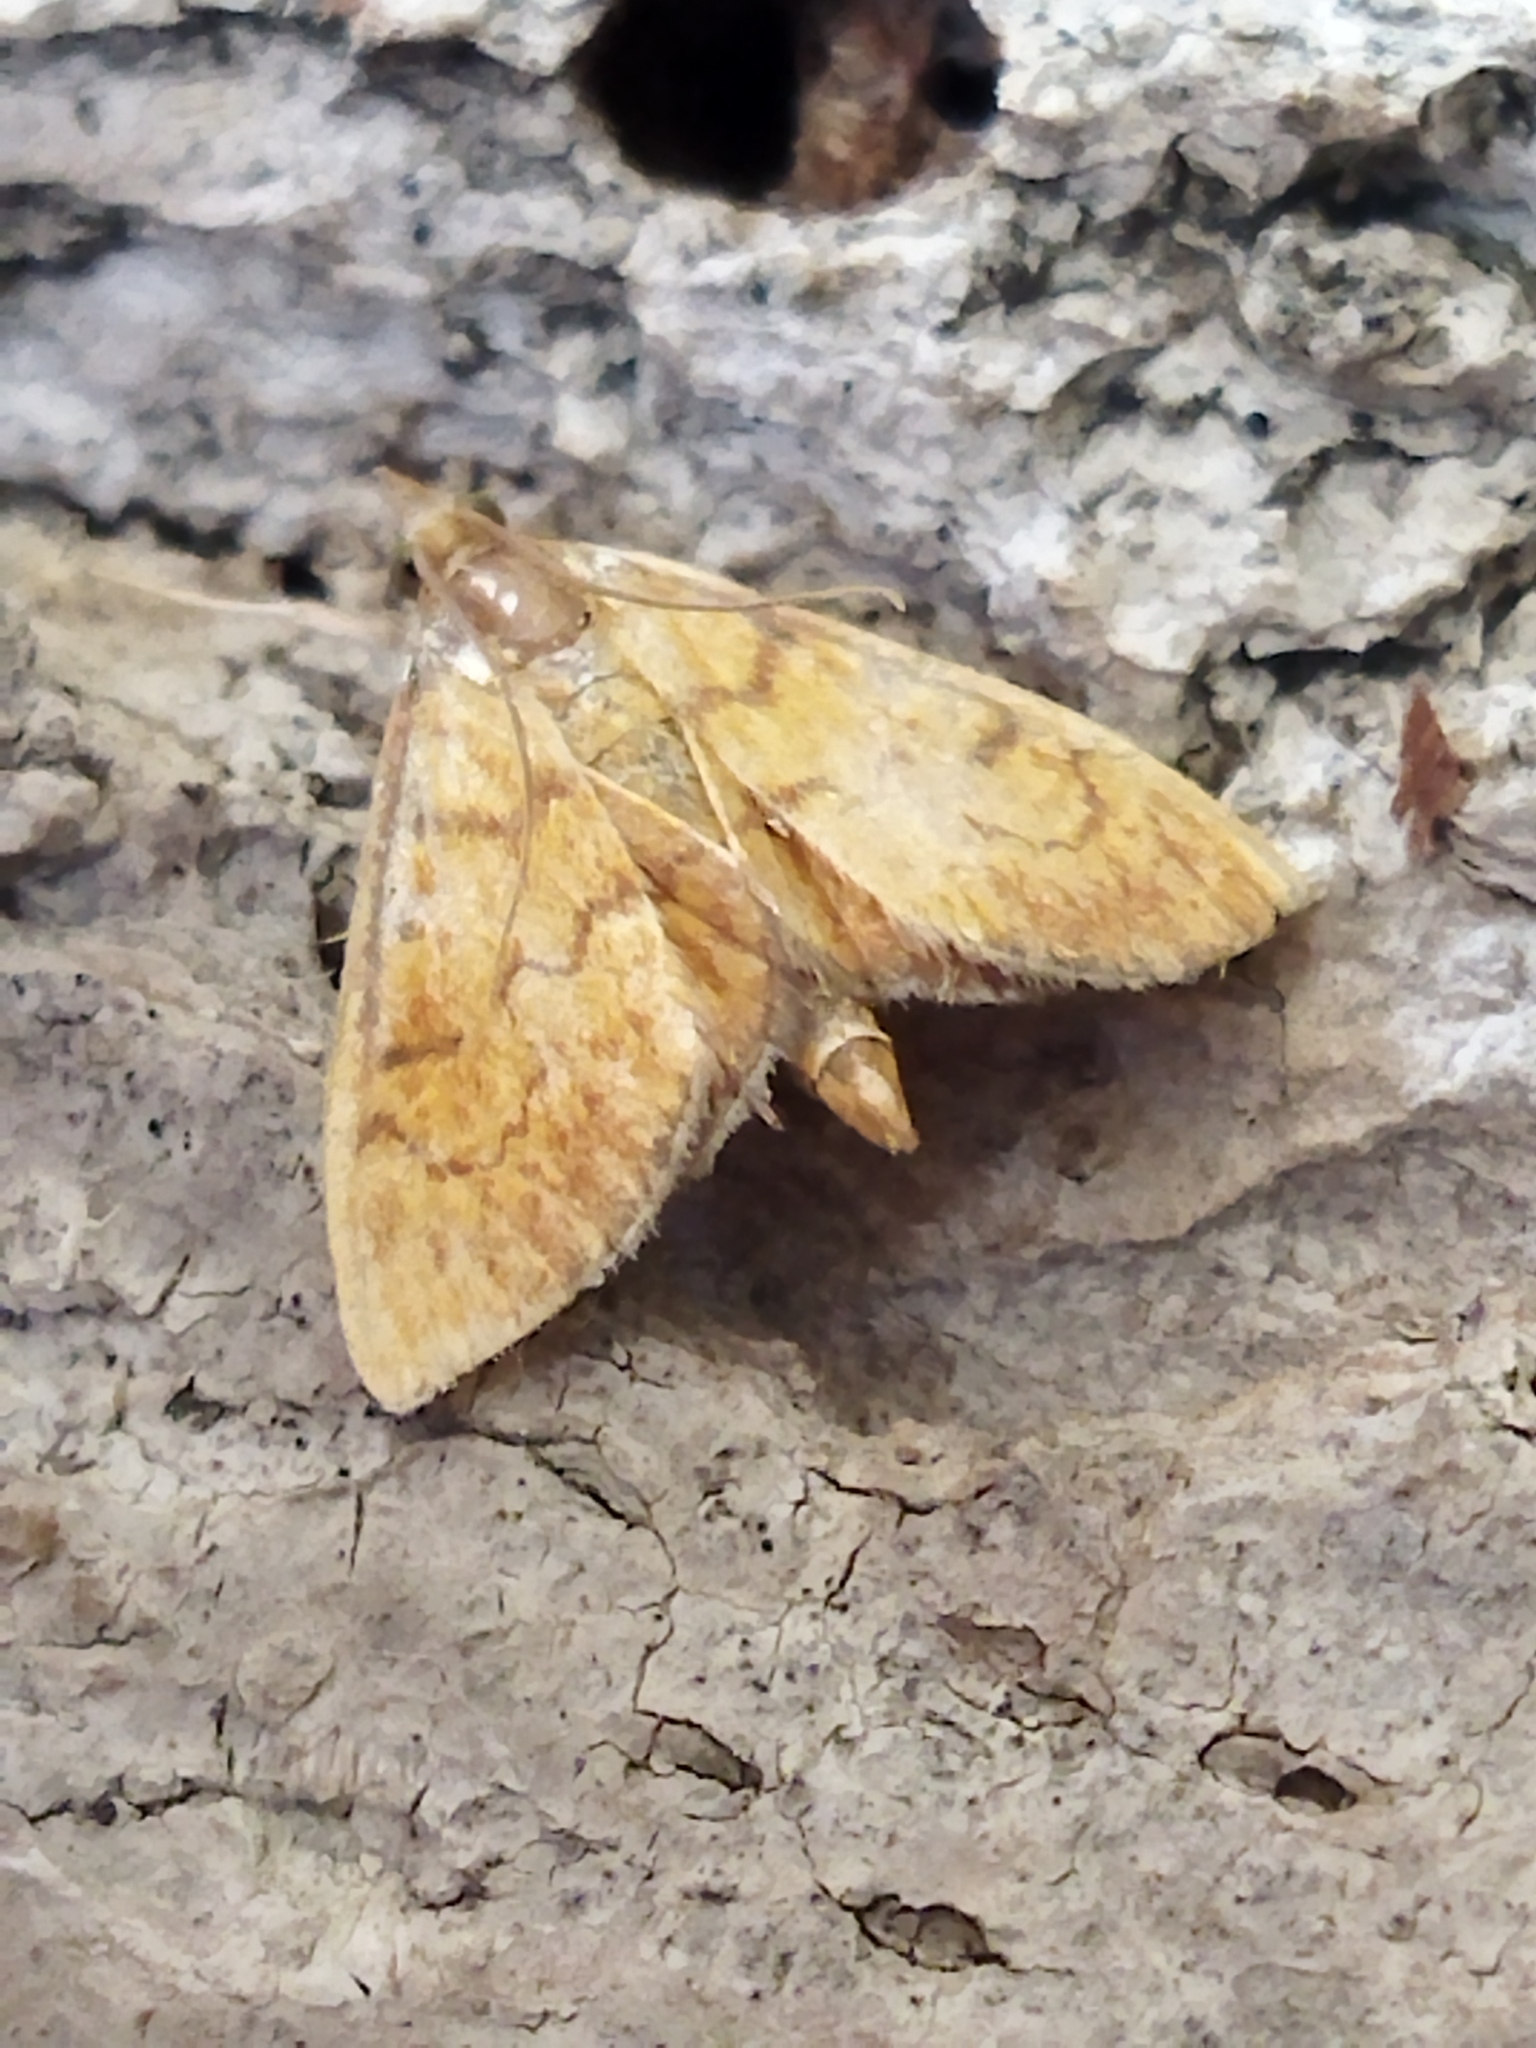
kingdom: Animalia
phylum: Arthropoda
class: Insecta
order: Lepidoptera
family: Crambidae
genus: Ecpyrrhorrhoe
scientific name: Ecpyrrhorrhoe rubiginalis
